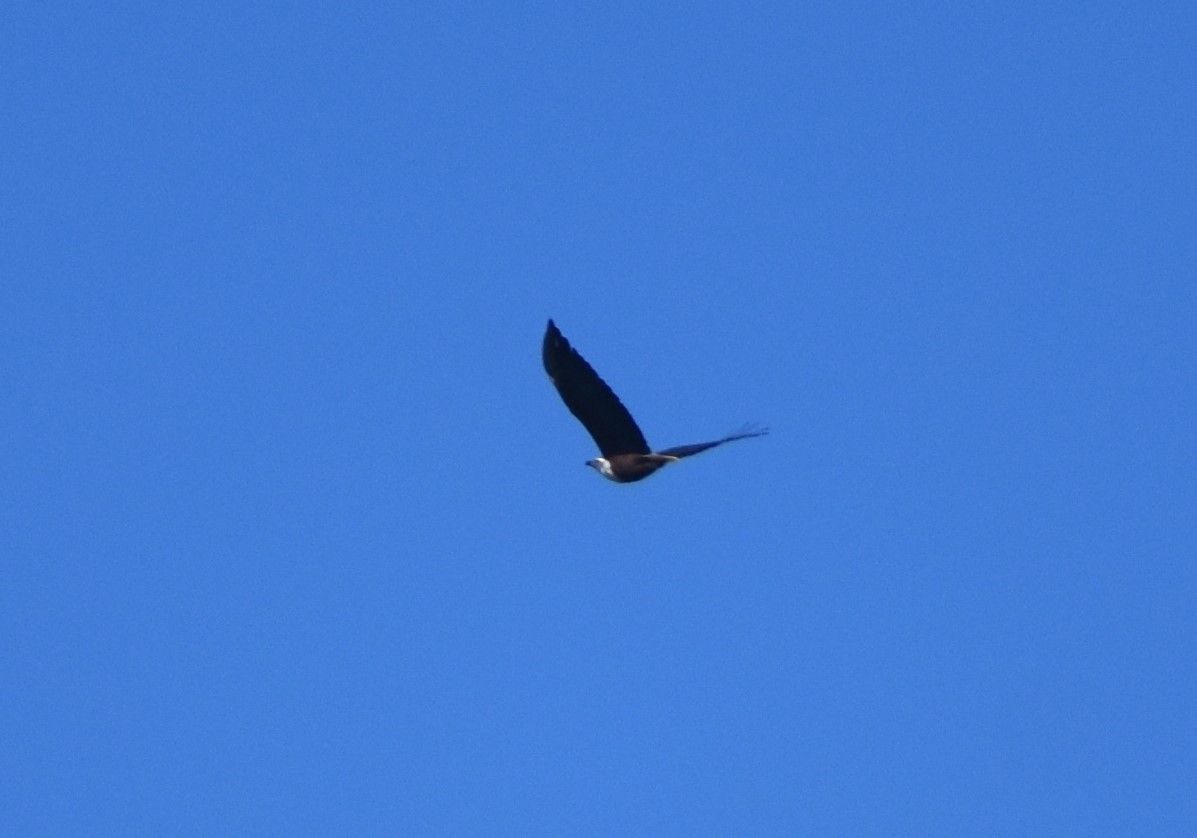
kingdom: Animalia
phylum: Chordata
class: Aves
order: Accipitriformes
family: Accipitridae
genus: Haliaeetus
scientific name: Haliaeetus vocifer
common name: African fish eagle
